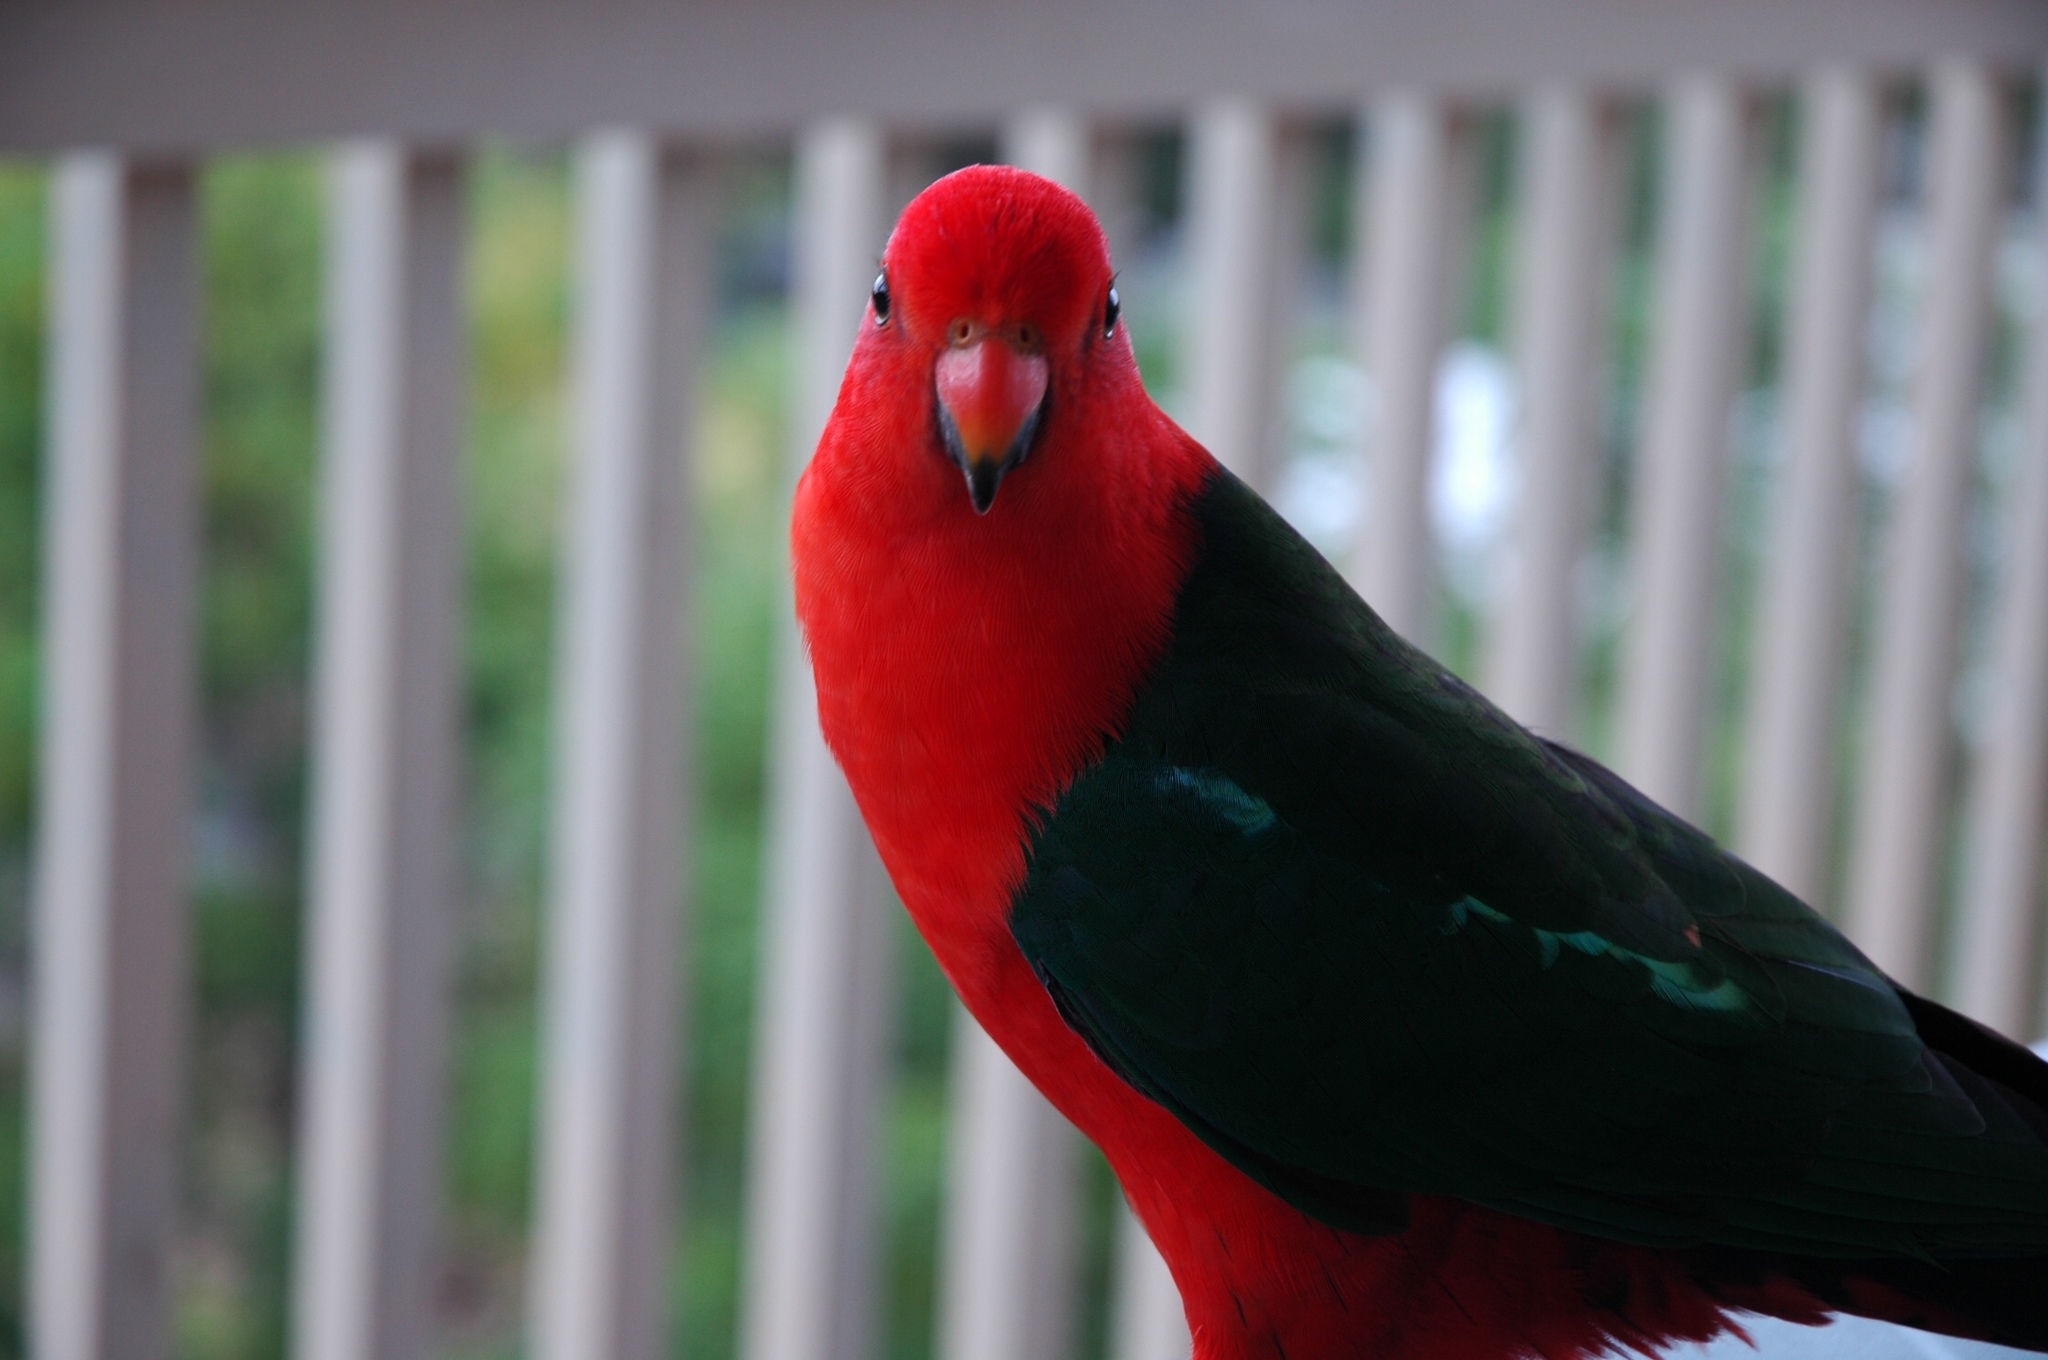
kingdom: Animalia
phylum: Chordata
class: Aves
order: Psittaciformes
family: Psittacidae
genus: Alisterus
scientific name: Alisterus scapularis
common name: Australian king parrot
